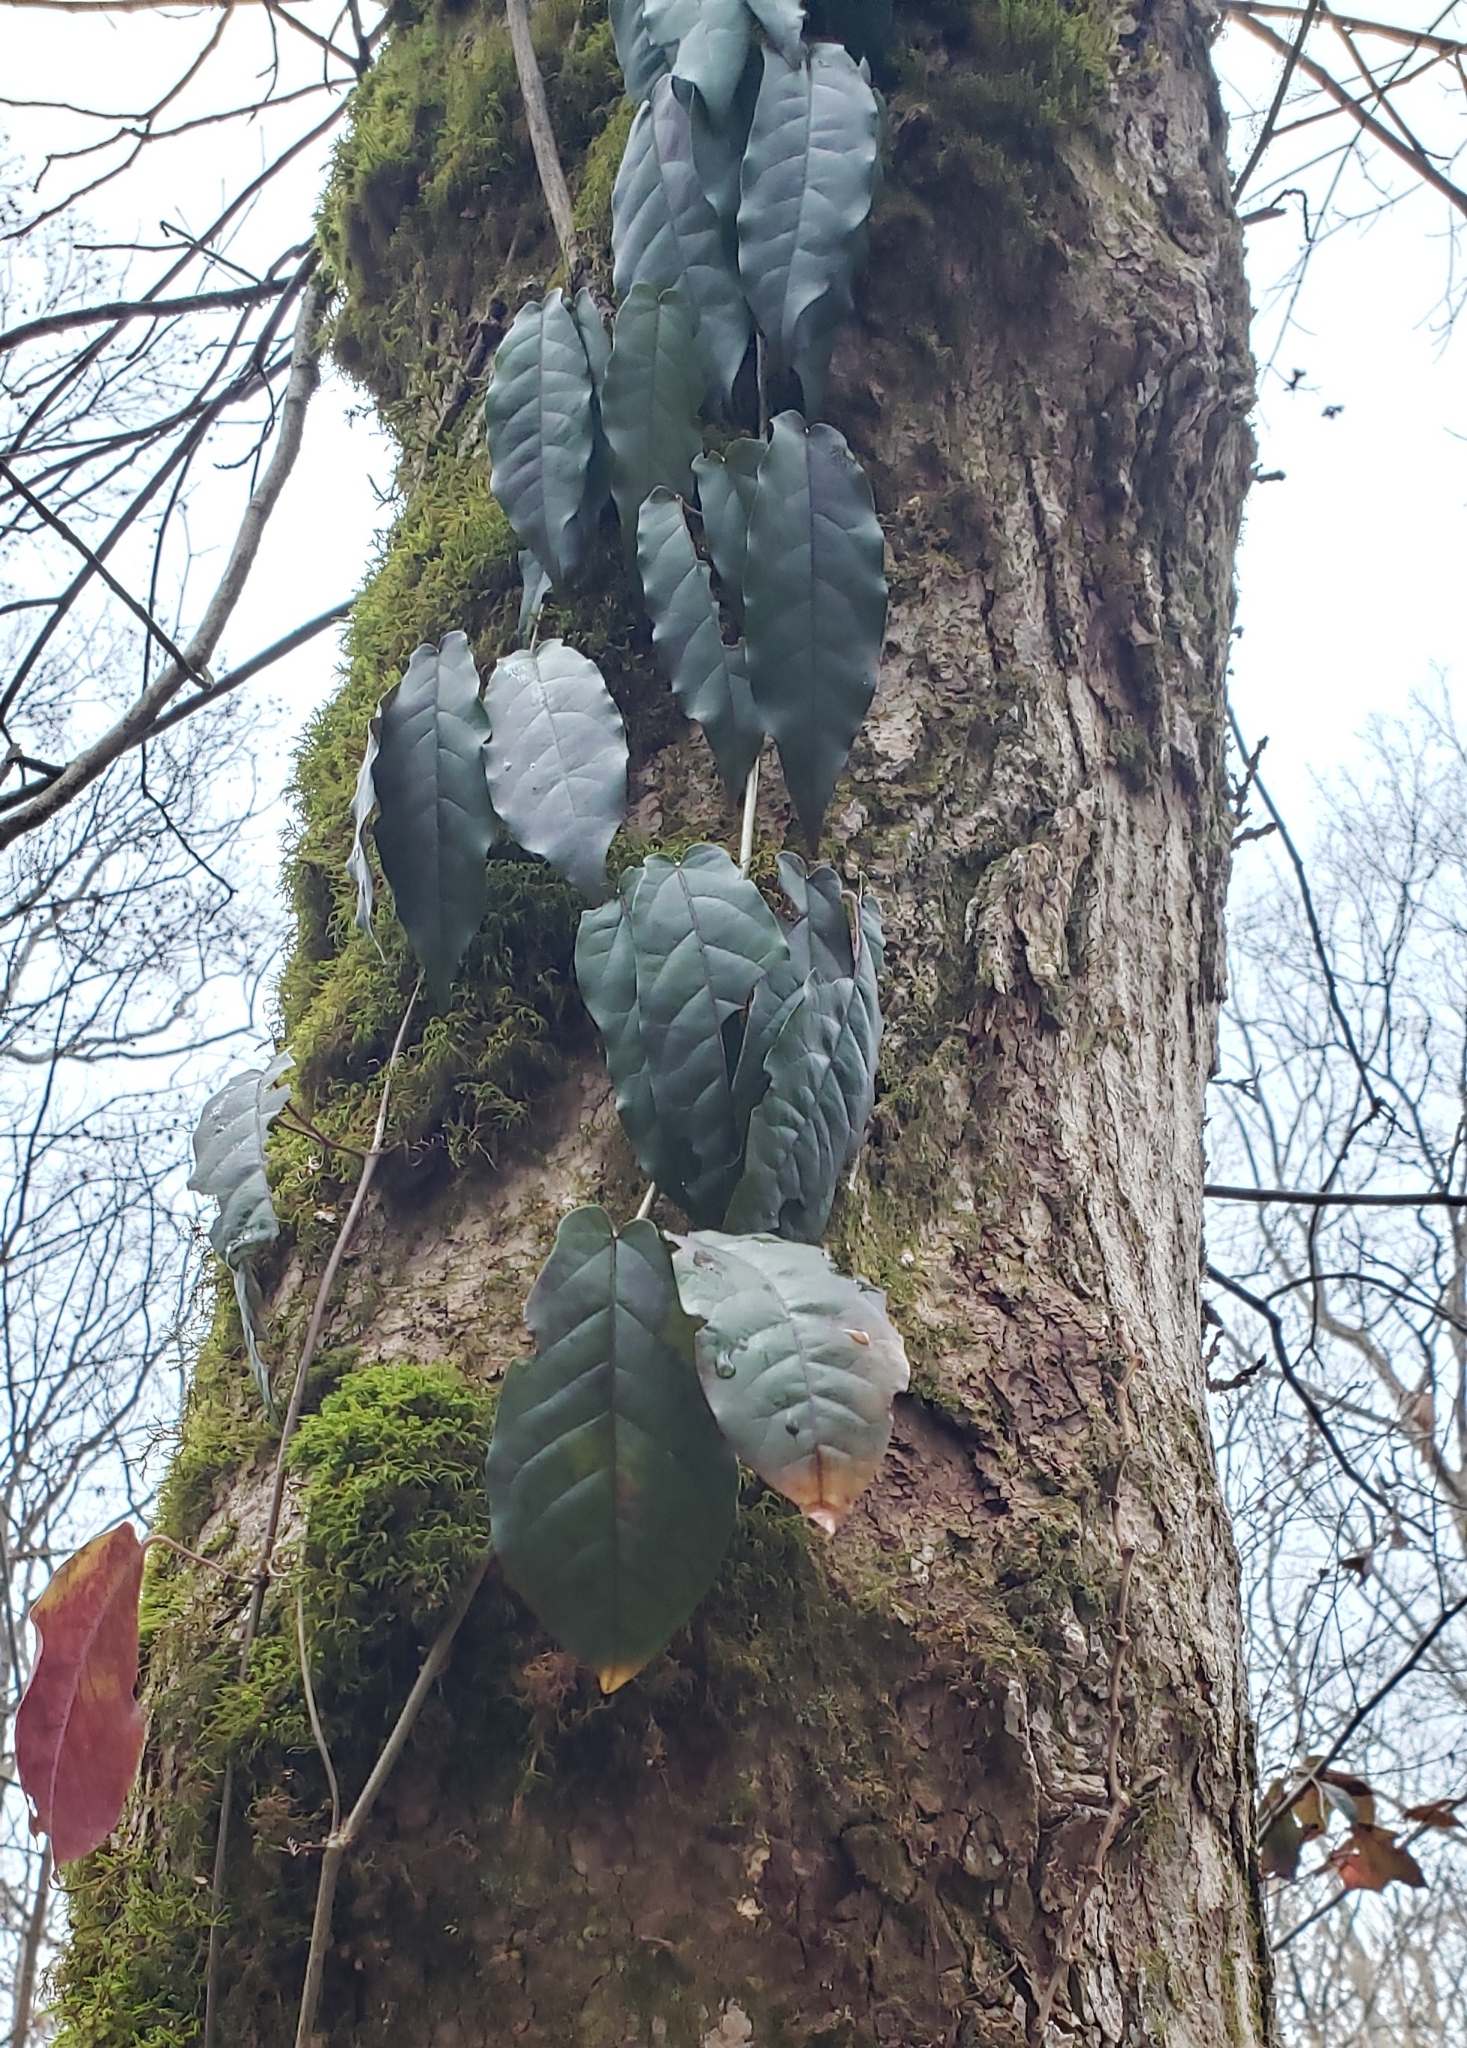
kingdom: Plantae
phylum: Tracheophyta
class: Magnoliopsida
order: Lamiales
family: Bignoniaceae
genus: Bignonia
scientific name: Bignonia capreolata
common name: Crossvine
